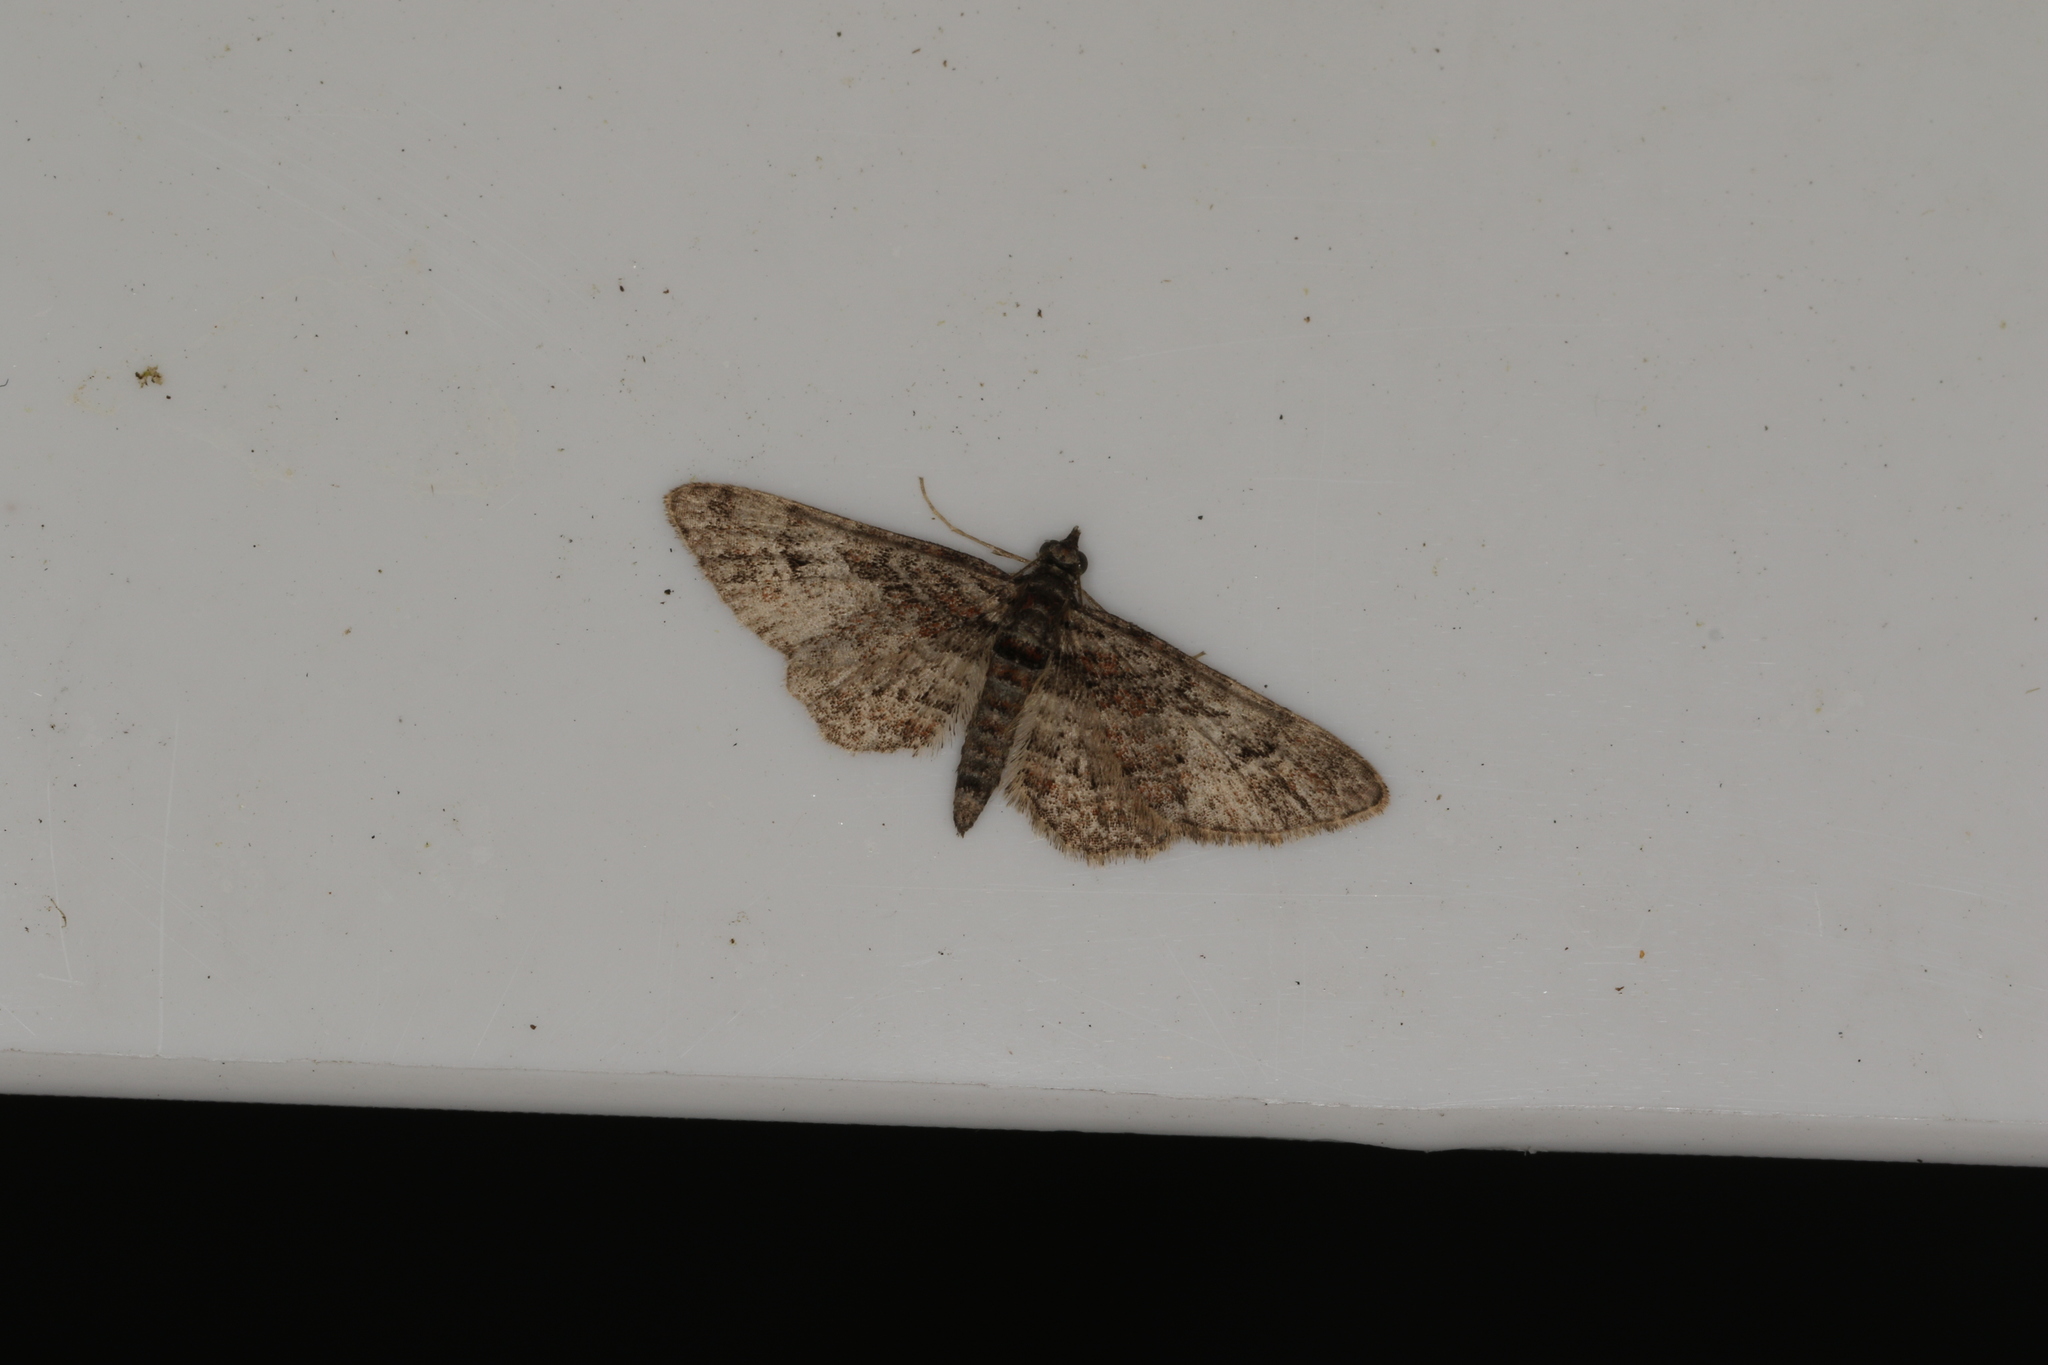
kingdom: Animalia
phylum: Arthropoda
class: Insecta
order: Lepidoptera
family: Geometridae
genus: Gymnoscelis
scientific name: Gymnoscelis rufifasciata
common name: Double-striped pug
